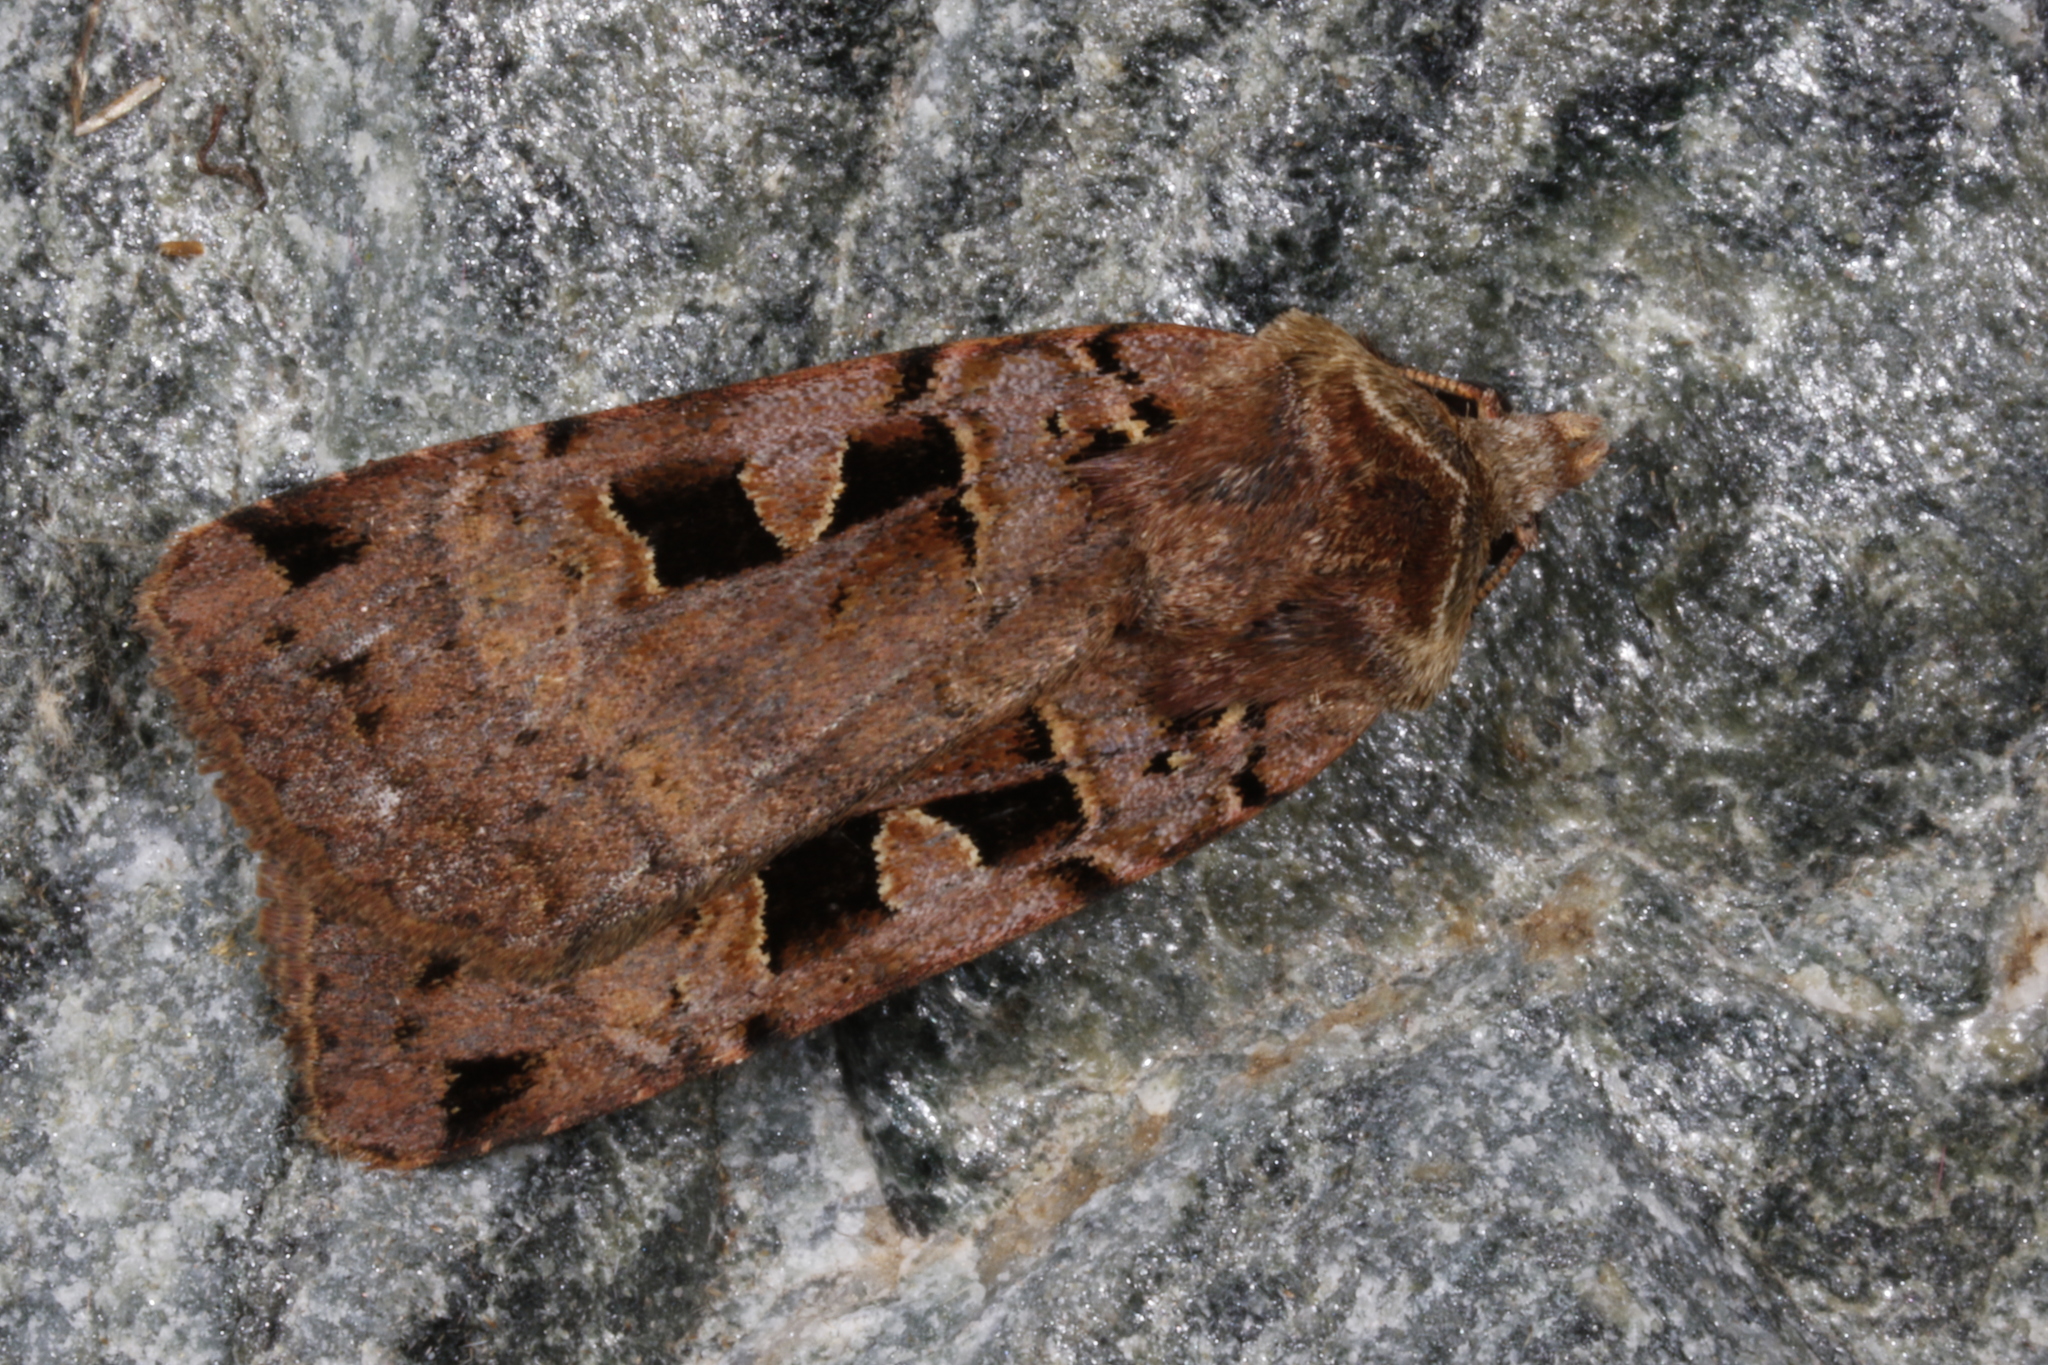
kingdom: Animalia
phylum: Arthropoda
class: Insecta
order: Lepidoptera
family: Noctuidae
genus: Xestia
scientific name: Xestia triangulum
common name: Double square-spot
